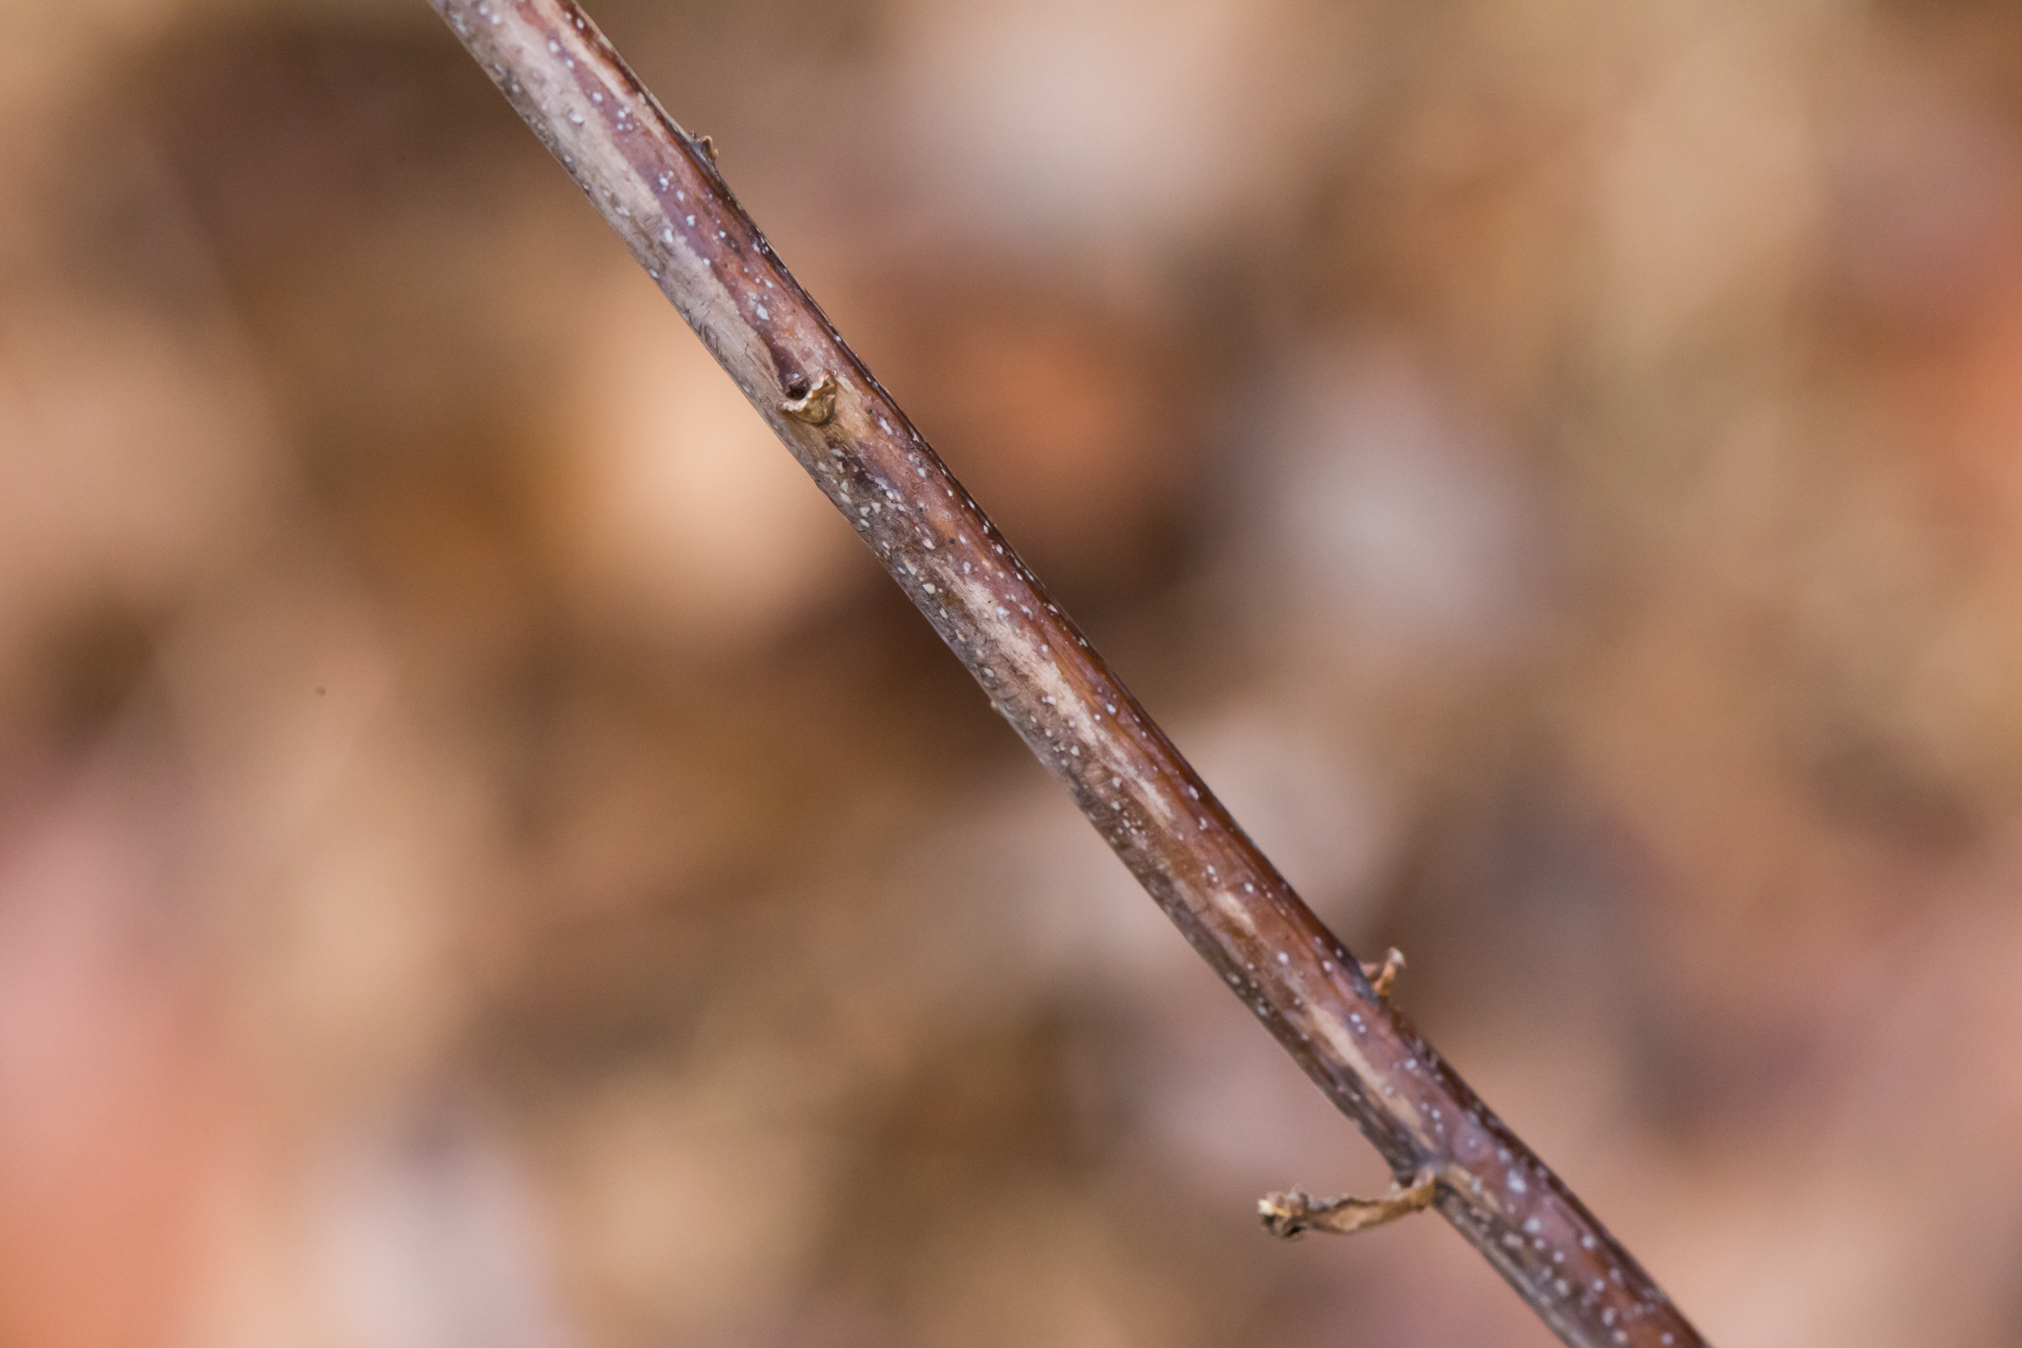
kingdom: Plantae
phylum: Tracheophyta
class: Magnoliopsida
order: Asterales
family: Asteraceae
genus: Solidago
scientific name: Solidago gigantea
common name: Giant goldenrod
